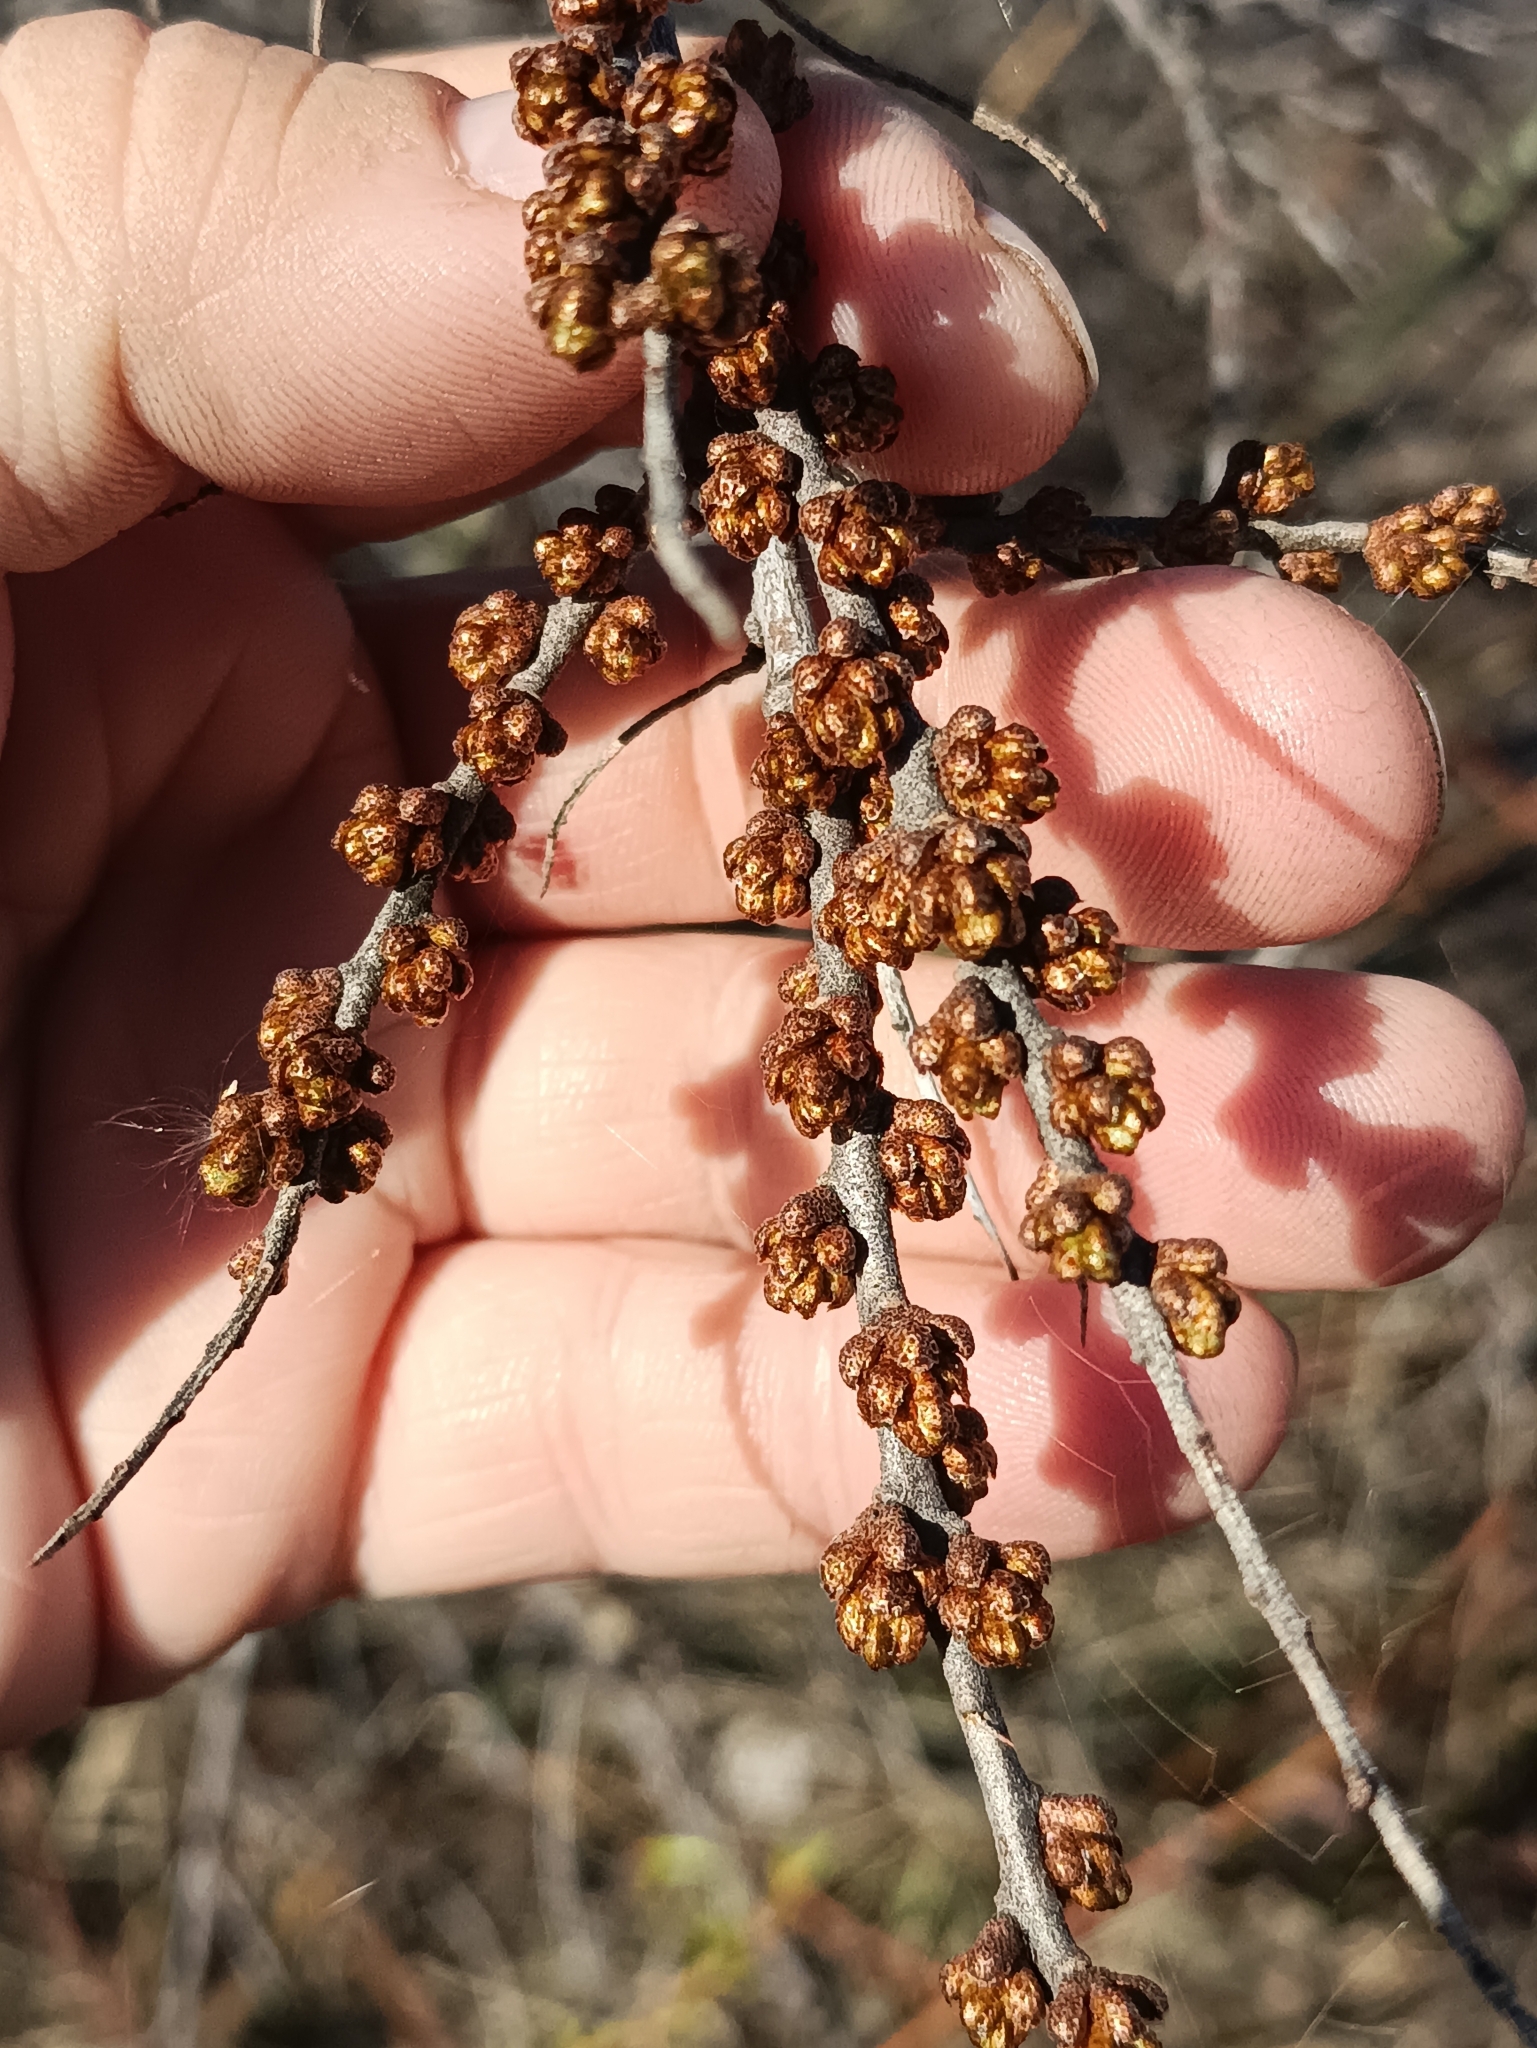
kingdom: Plantae
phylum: Tracheophyta
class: Magnoliopsida
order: Rosales
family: Elaeagnaceae
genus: Hippophae
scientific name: Hippophae rhamnoides
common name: Sea-buckthorn
